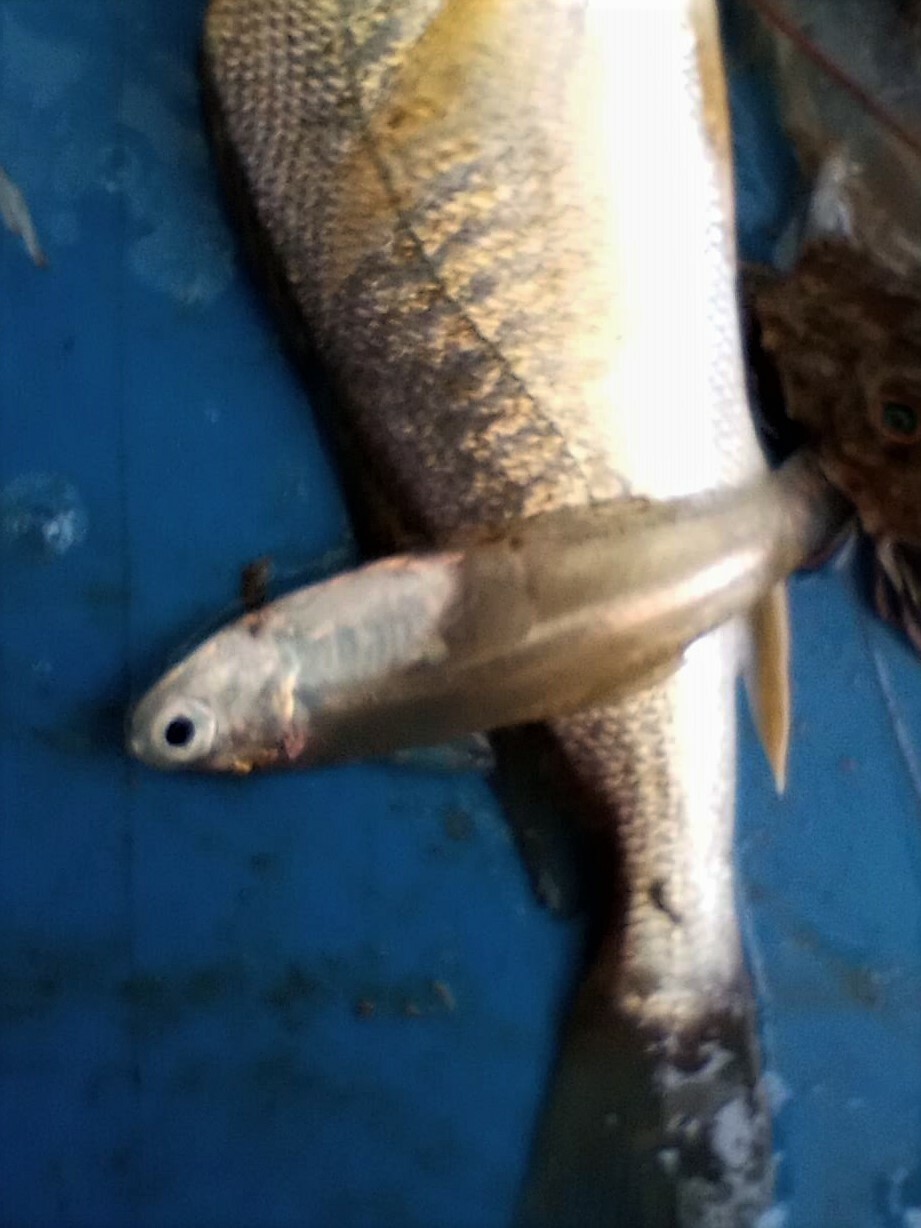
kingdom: Animalia
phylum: Chordata
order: Clupeiformes
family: Engraulidae
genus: Anchoa
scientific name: Anchoa mitchilli
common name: Bay anchovy
